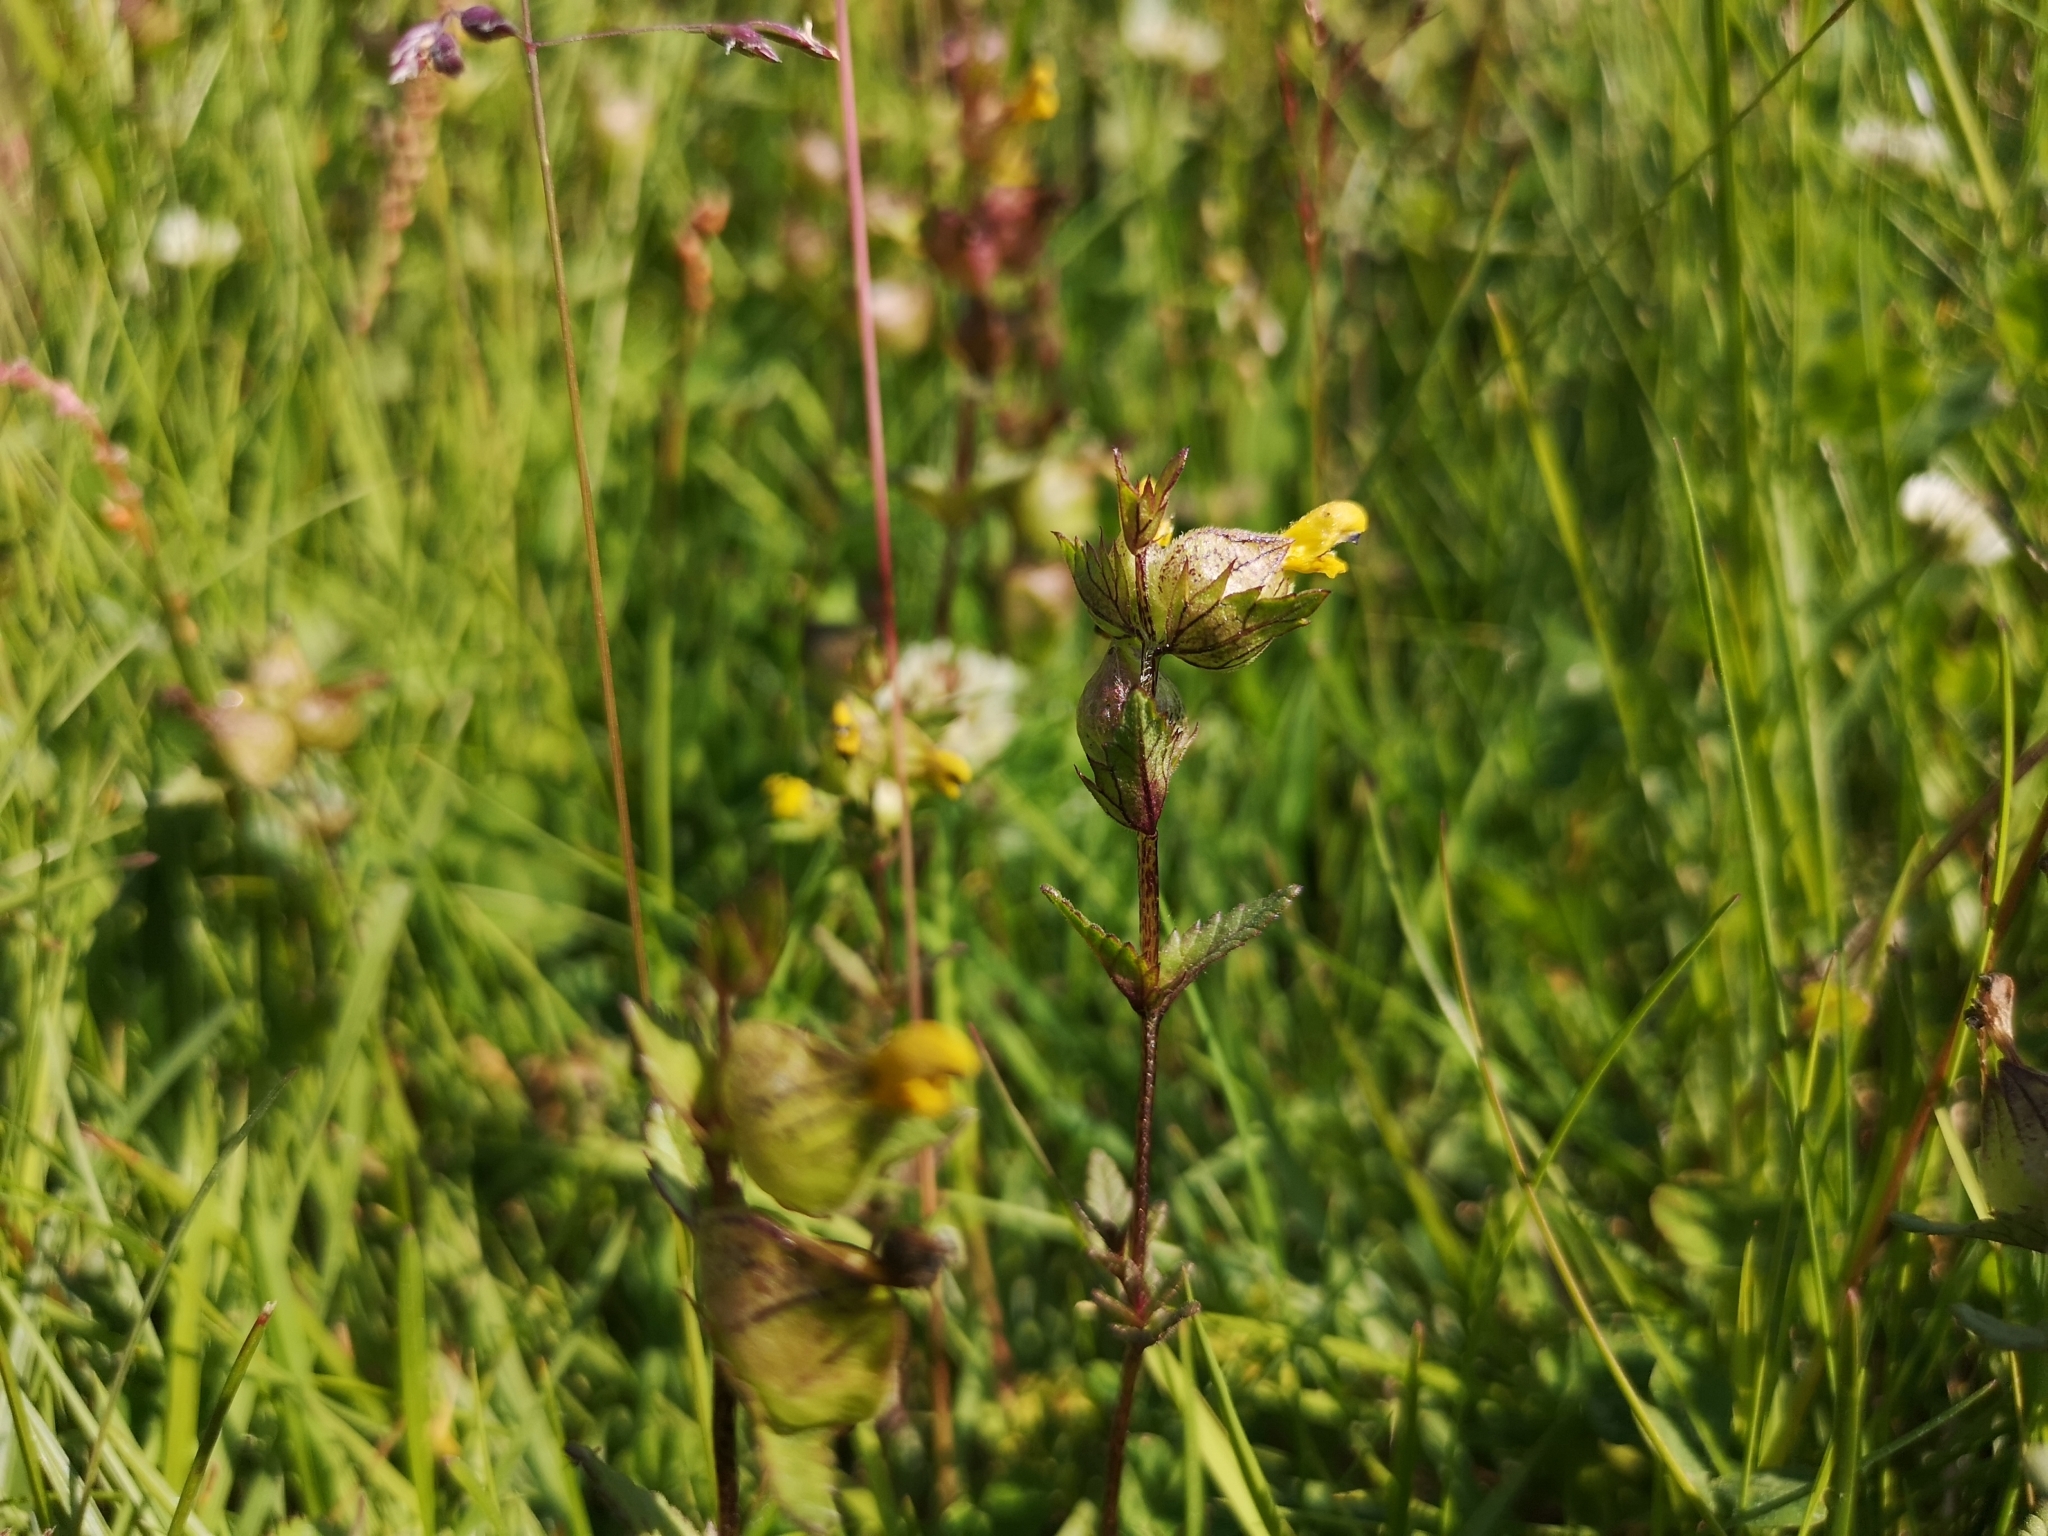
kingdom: Plantae
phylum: Tracheophyta
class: Magnoliopsida
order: Lamiales
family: Orobanchaceae
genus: Rhinanthus
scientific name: Rhinanthus minor
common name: Yellow-rattle
